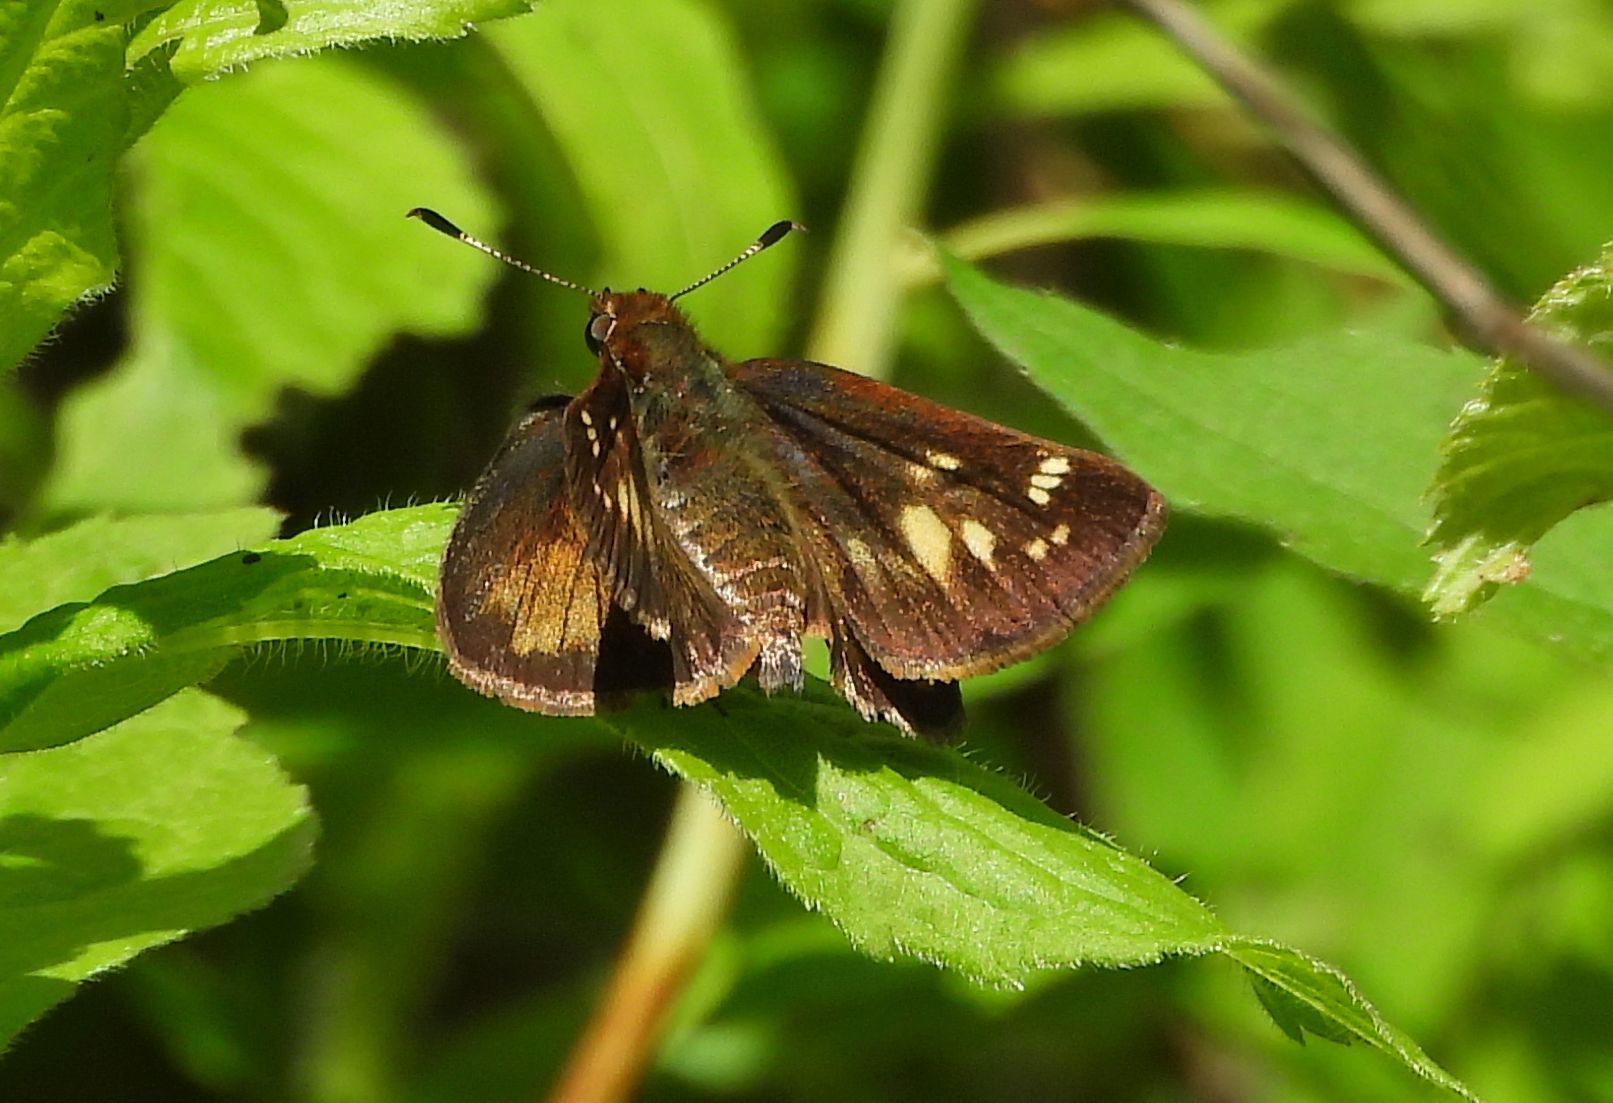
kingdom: Animalia
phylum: Arthropoda
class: Insecta
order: Lepidoptera
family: Hesperiidae
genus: Lon
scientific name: Lon hobomok
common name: Hobomok skipper
